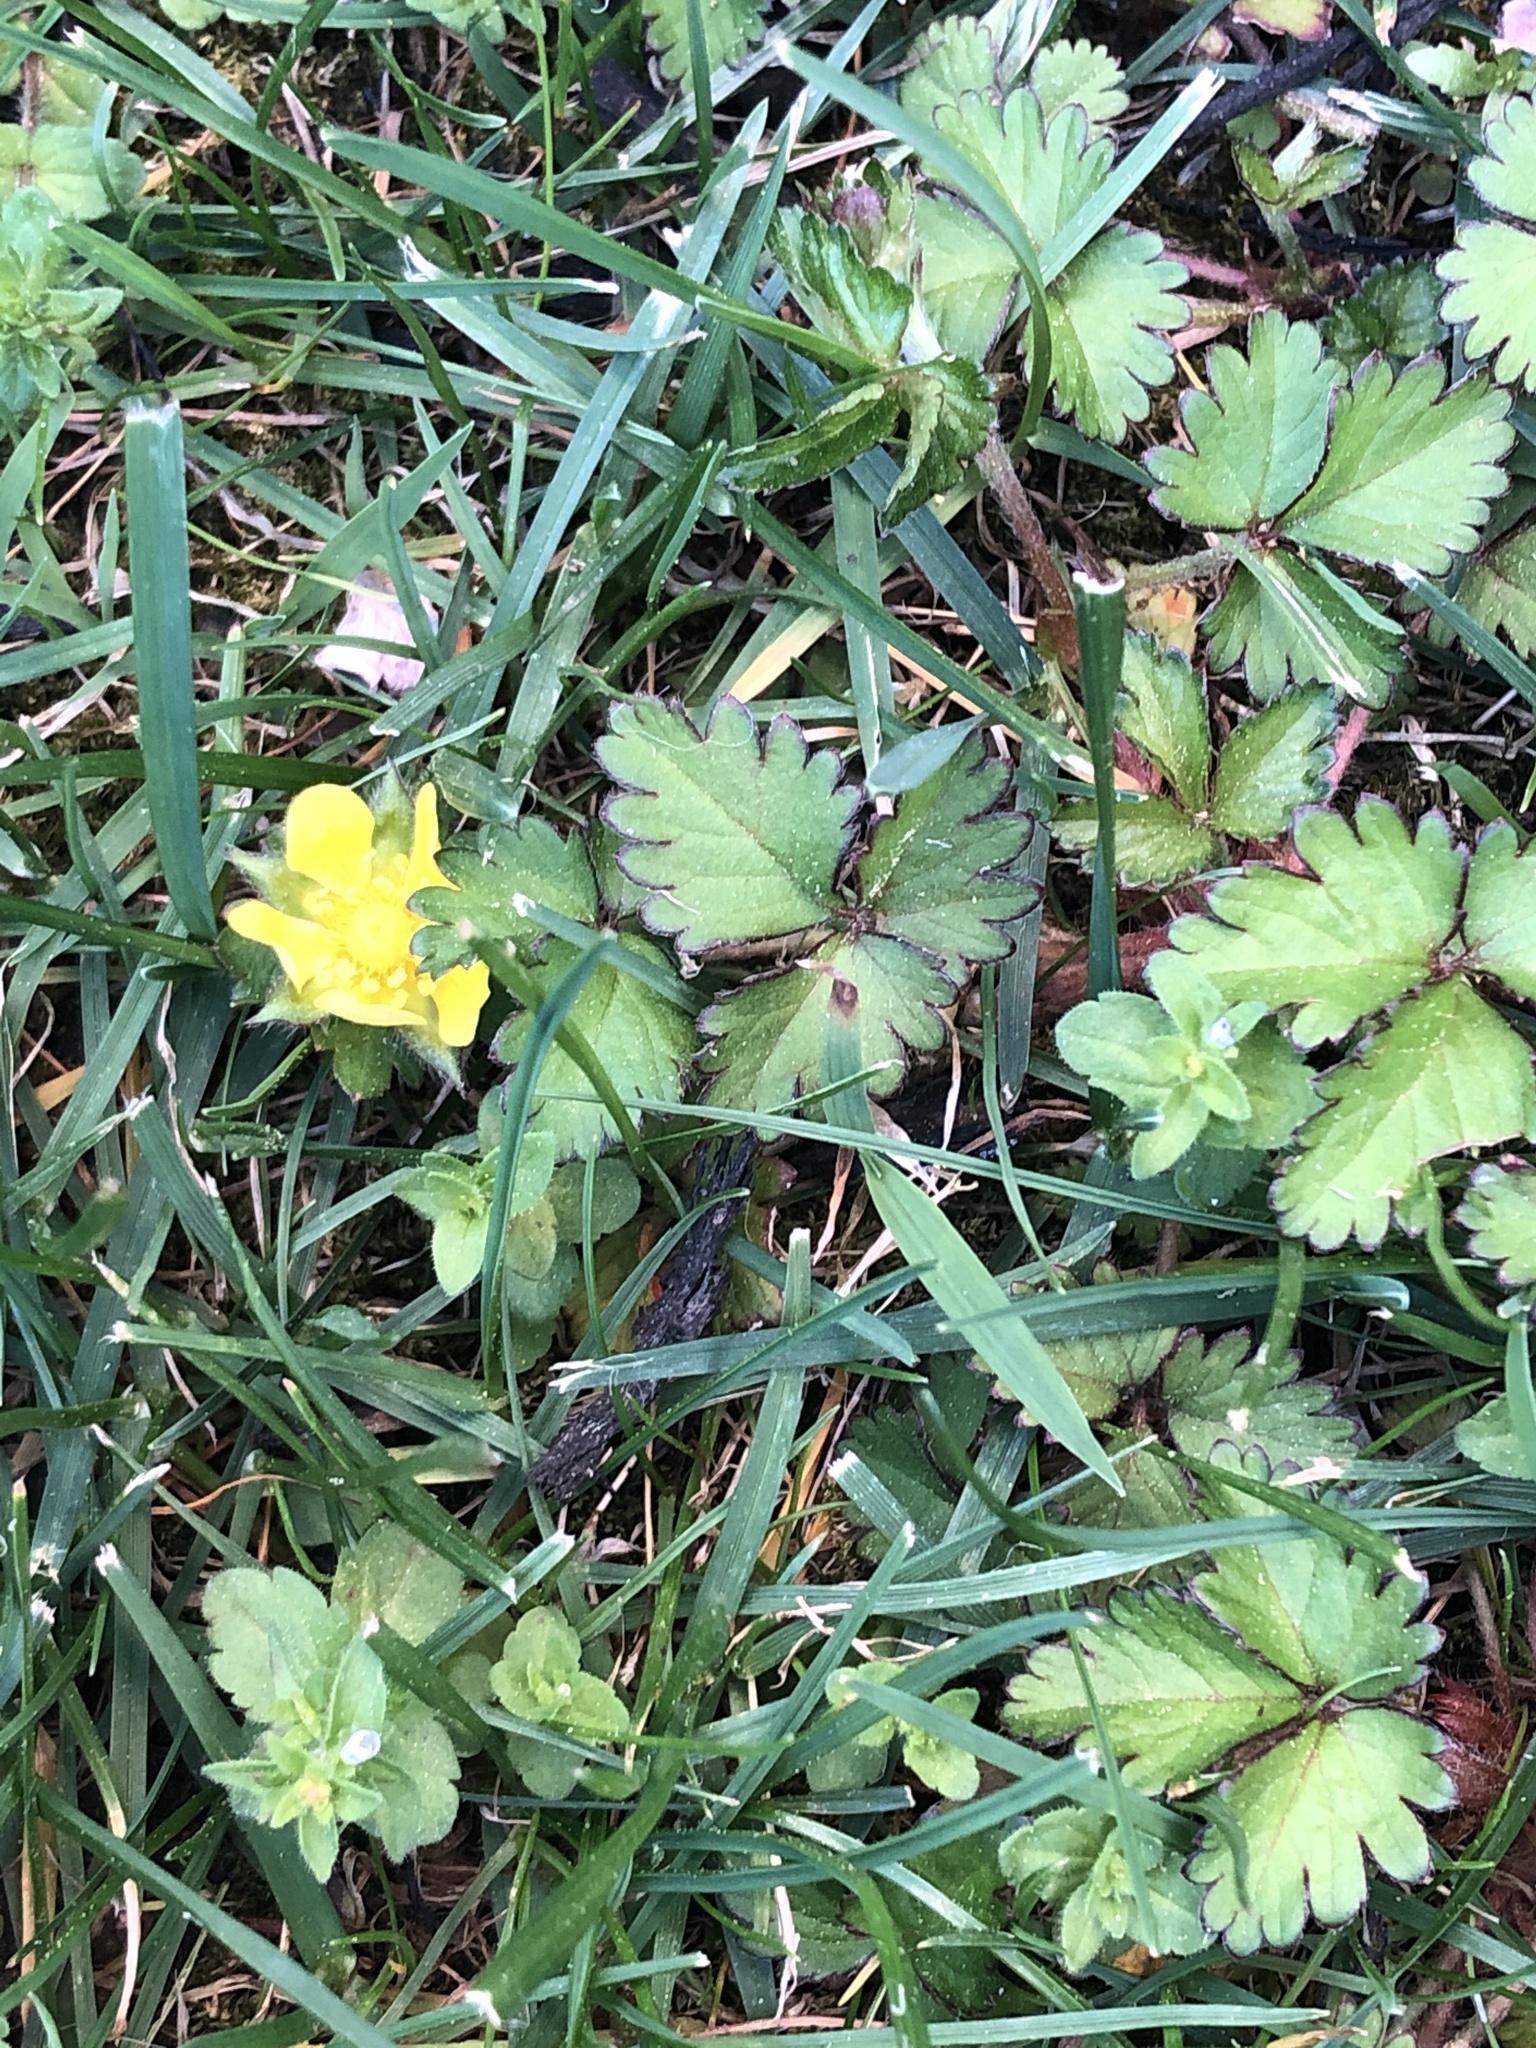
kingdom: Plantae
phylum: Tracheophyta
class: Magnoliopsida
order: Rosales
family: Rosaceae
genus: Potentilla
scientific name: Potentilla indica
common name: Yellow-flowered strawberry
